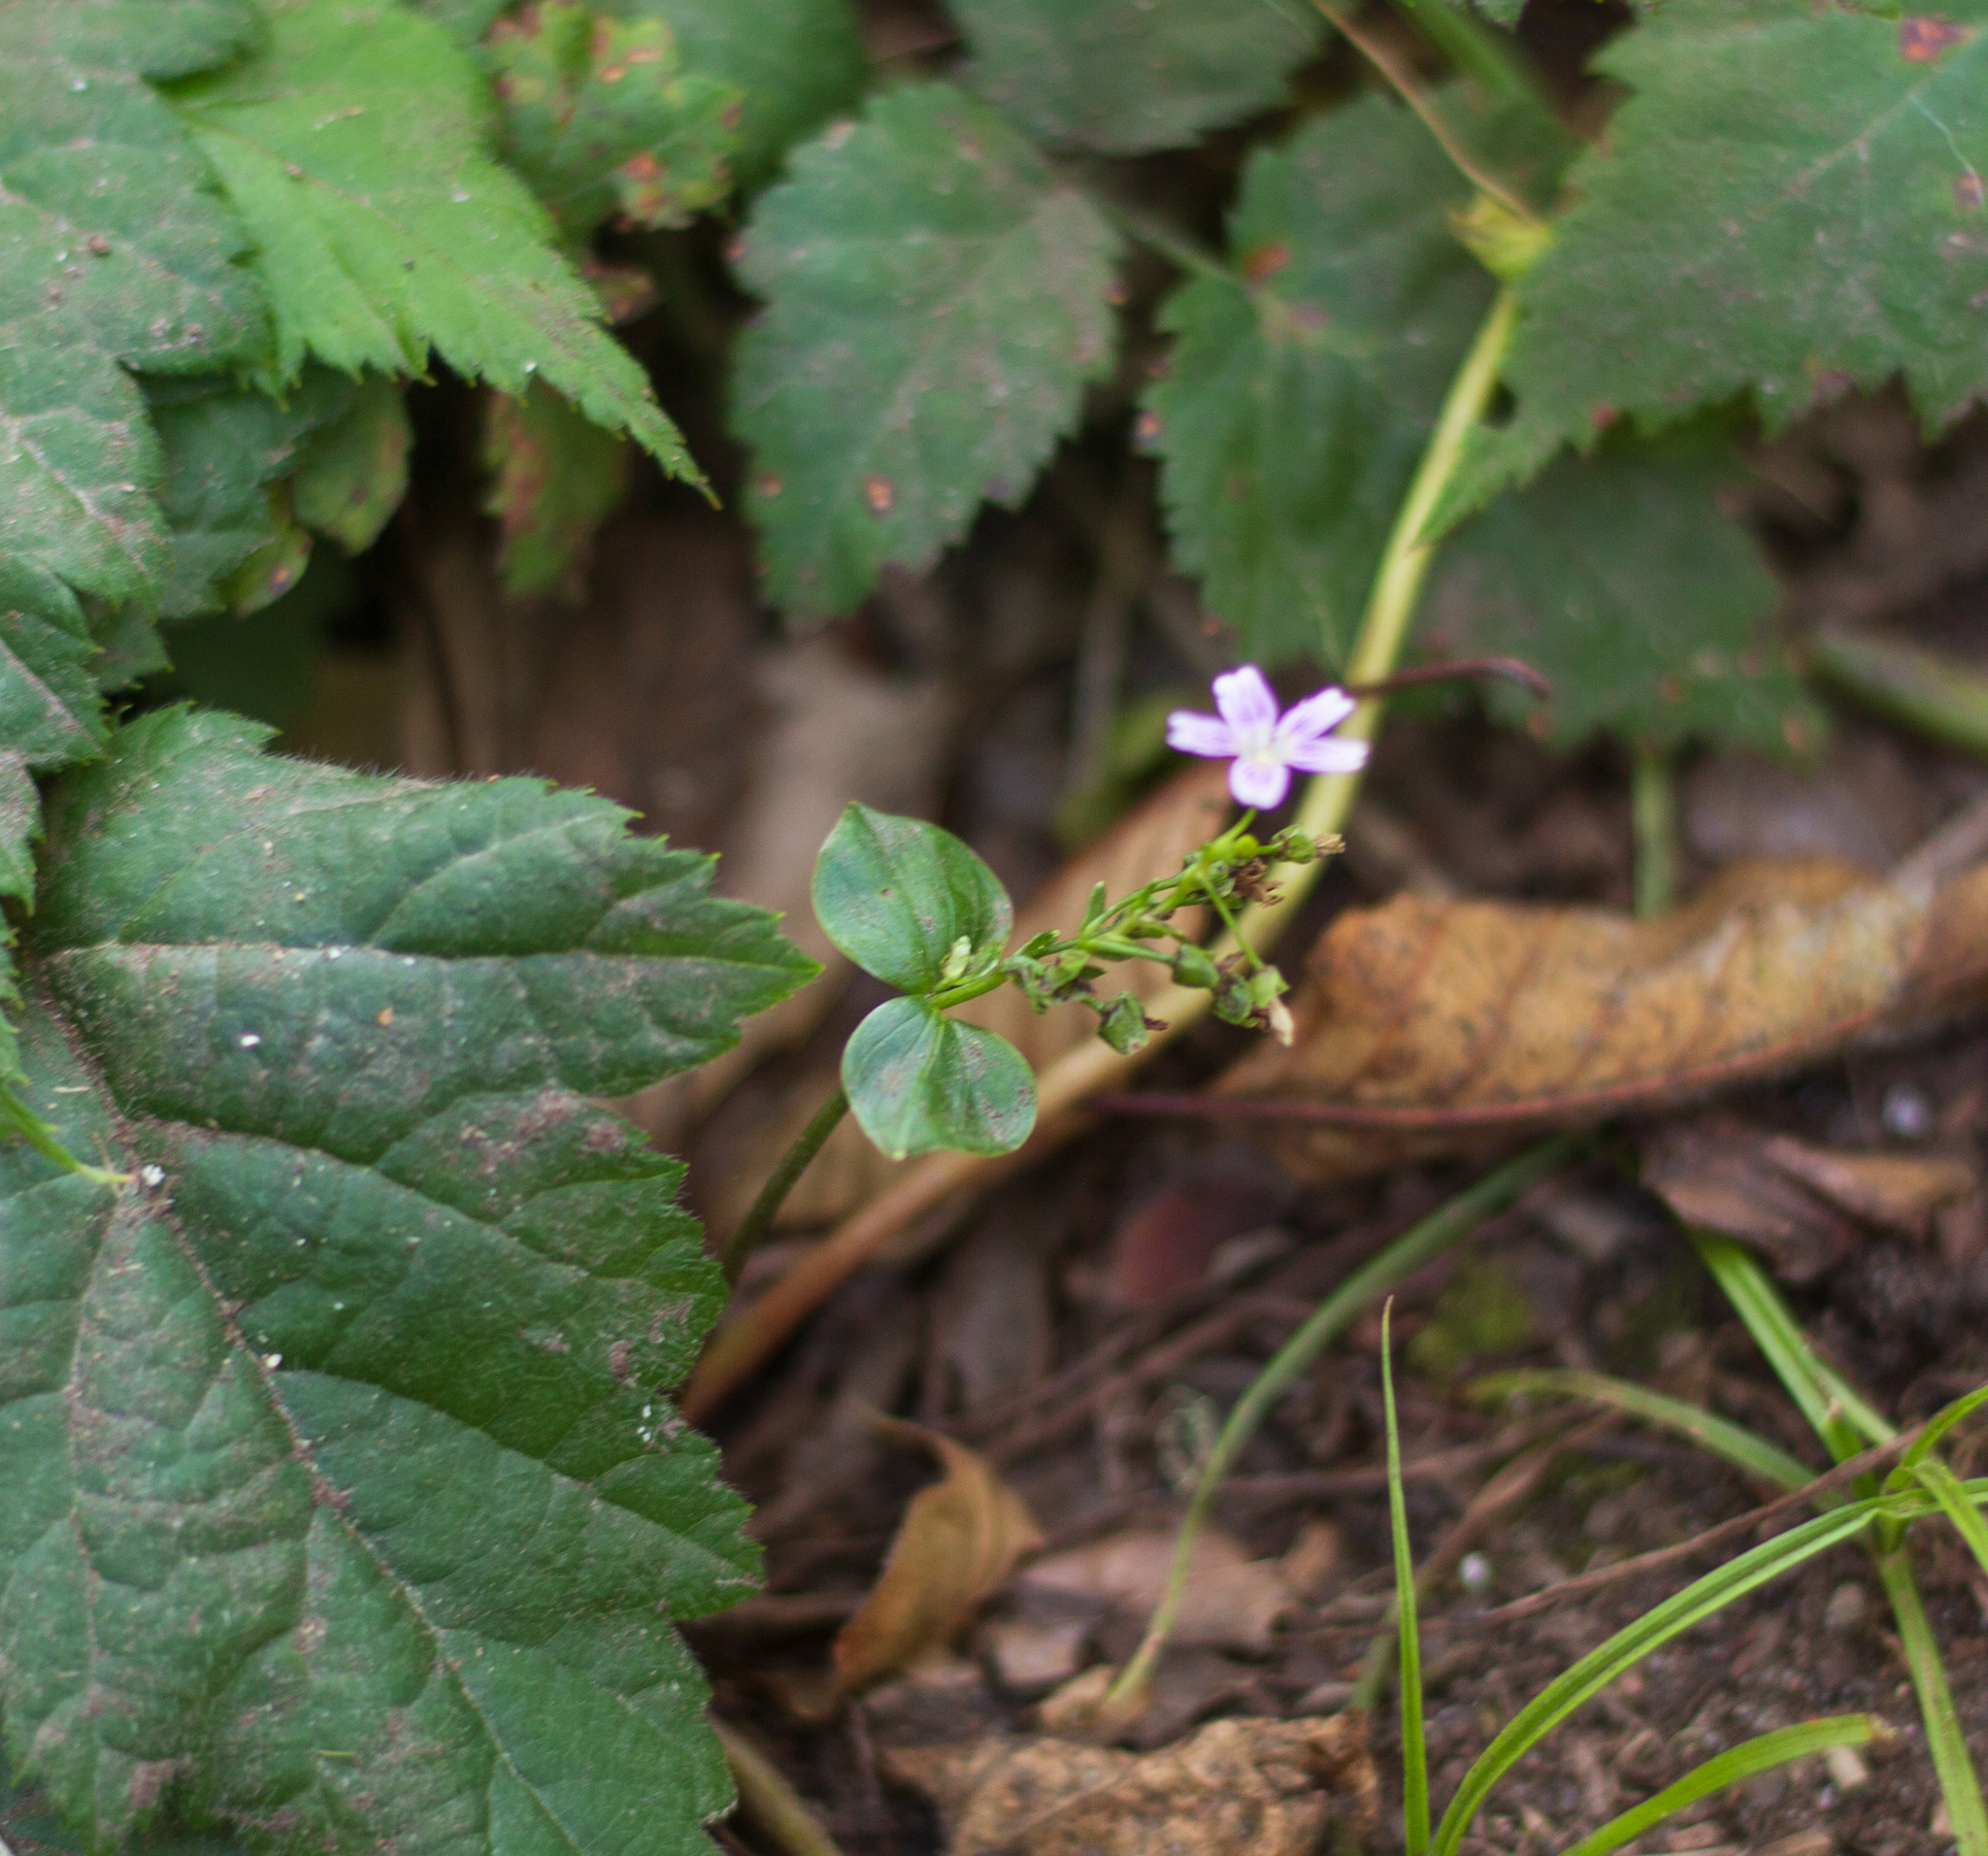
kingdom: Plantae
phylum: Tracheophyta
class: Magnoliopsida
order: Caryophyllales
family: Montiaceae
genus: Claytonia
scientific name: Claytonia sibirica
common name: Pink purslane
